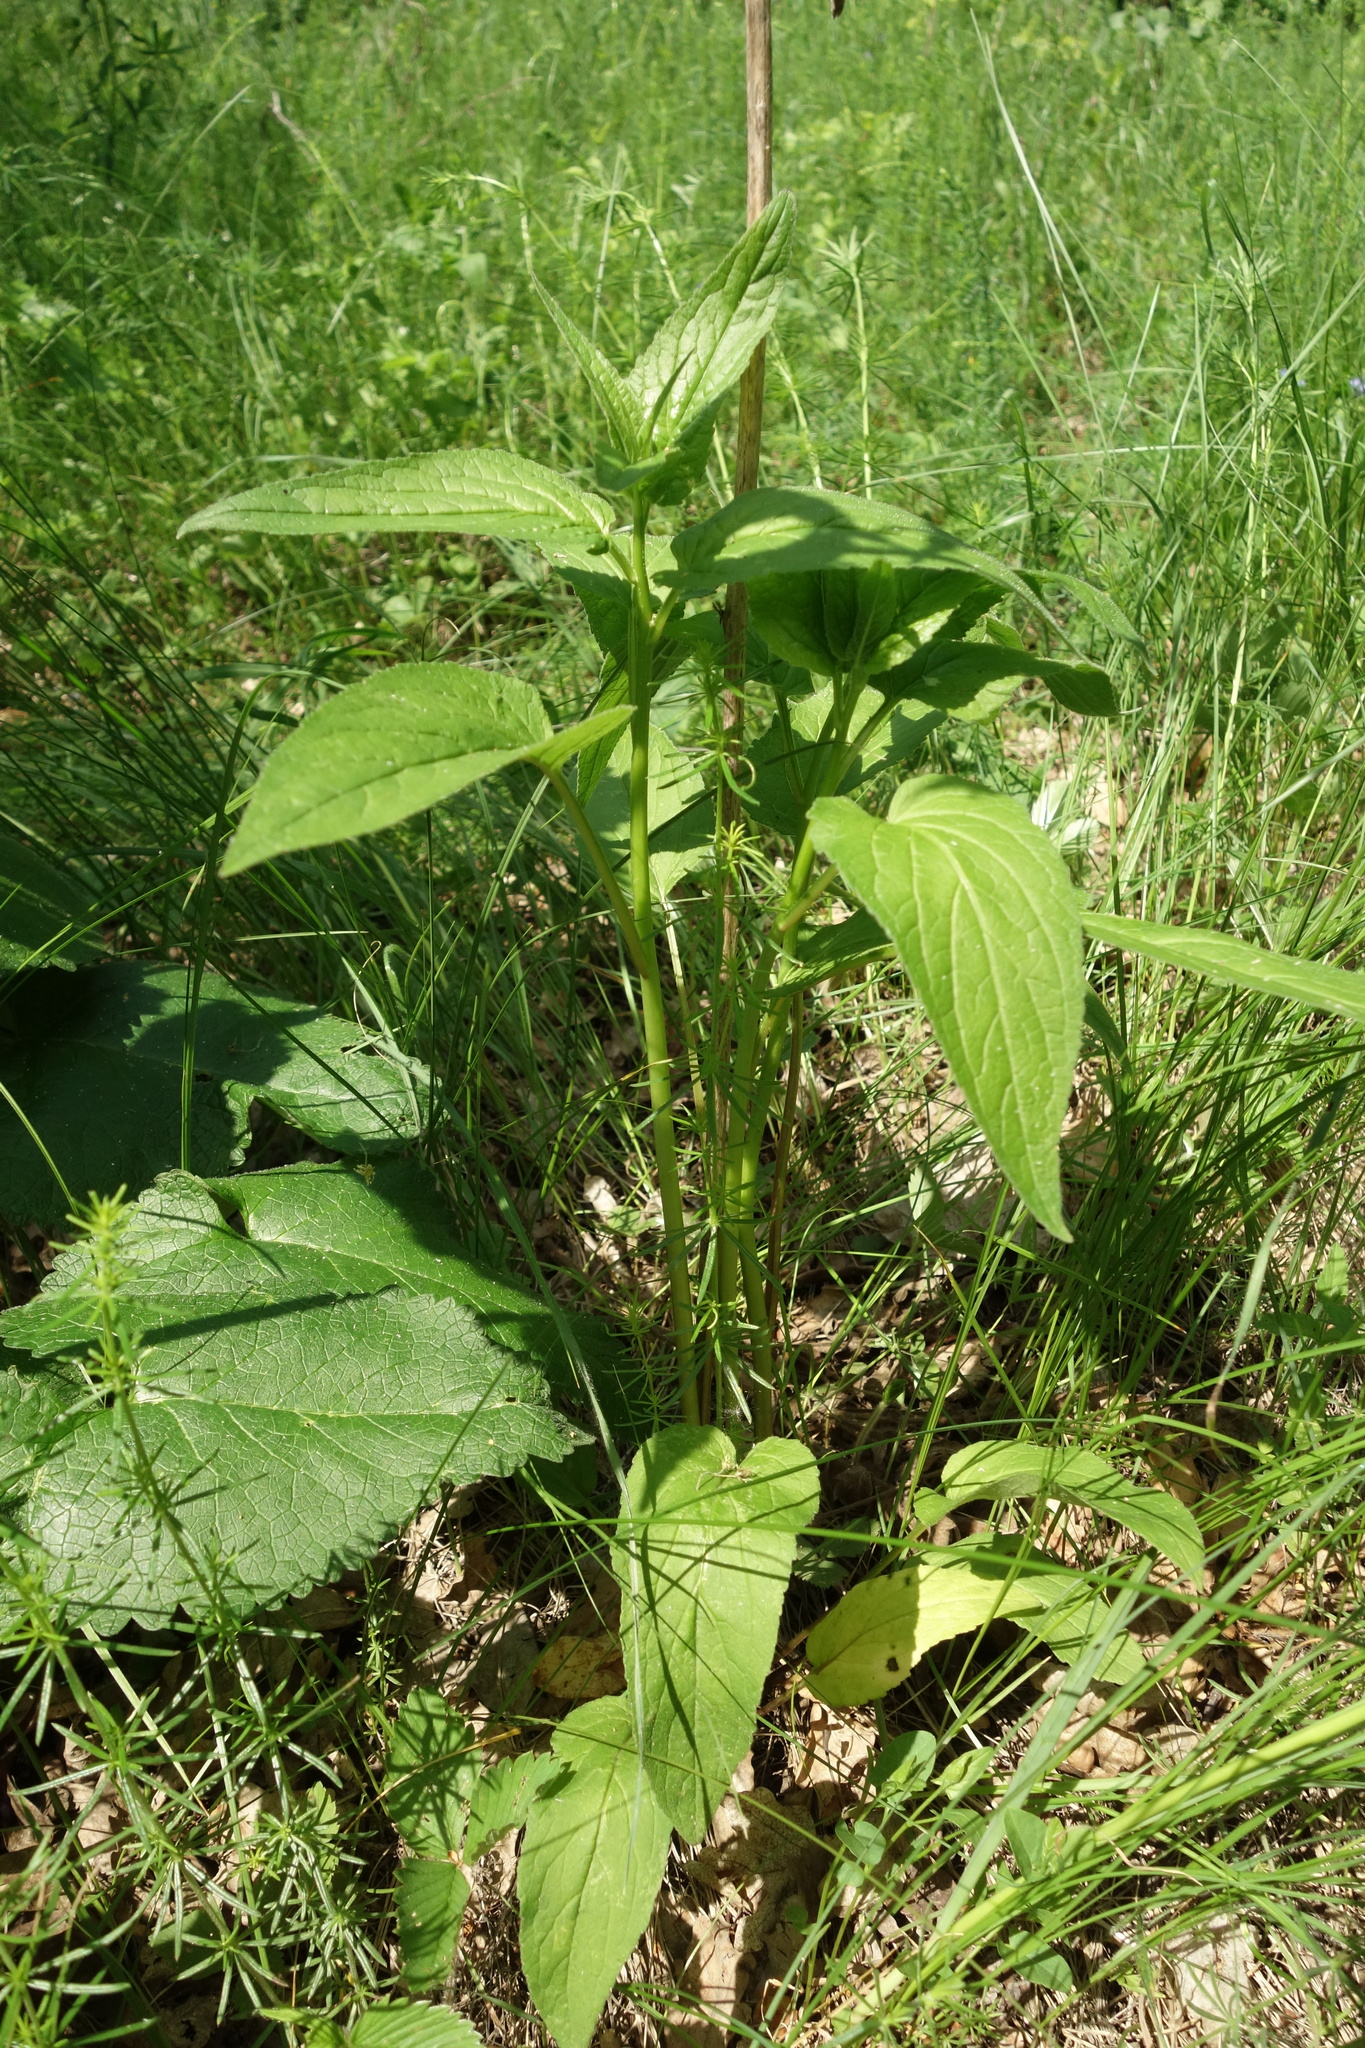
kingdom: Plantae
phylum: Tracheophyta
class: Magnoliopsida
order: Asterales
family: Campanulaceae
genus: Campanula
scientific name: Campanula rapunculoides
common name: Creeping bellflower
